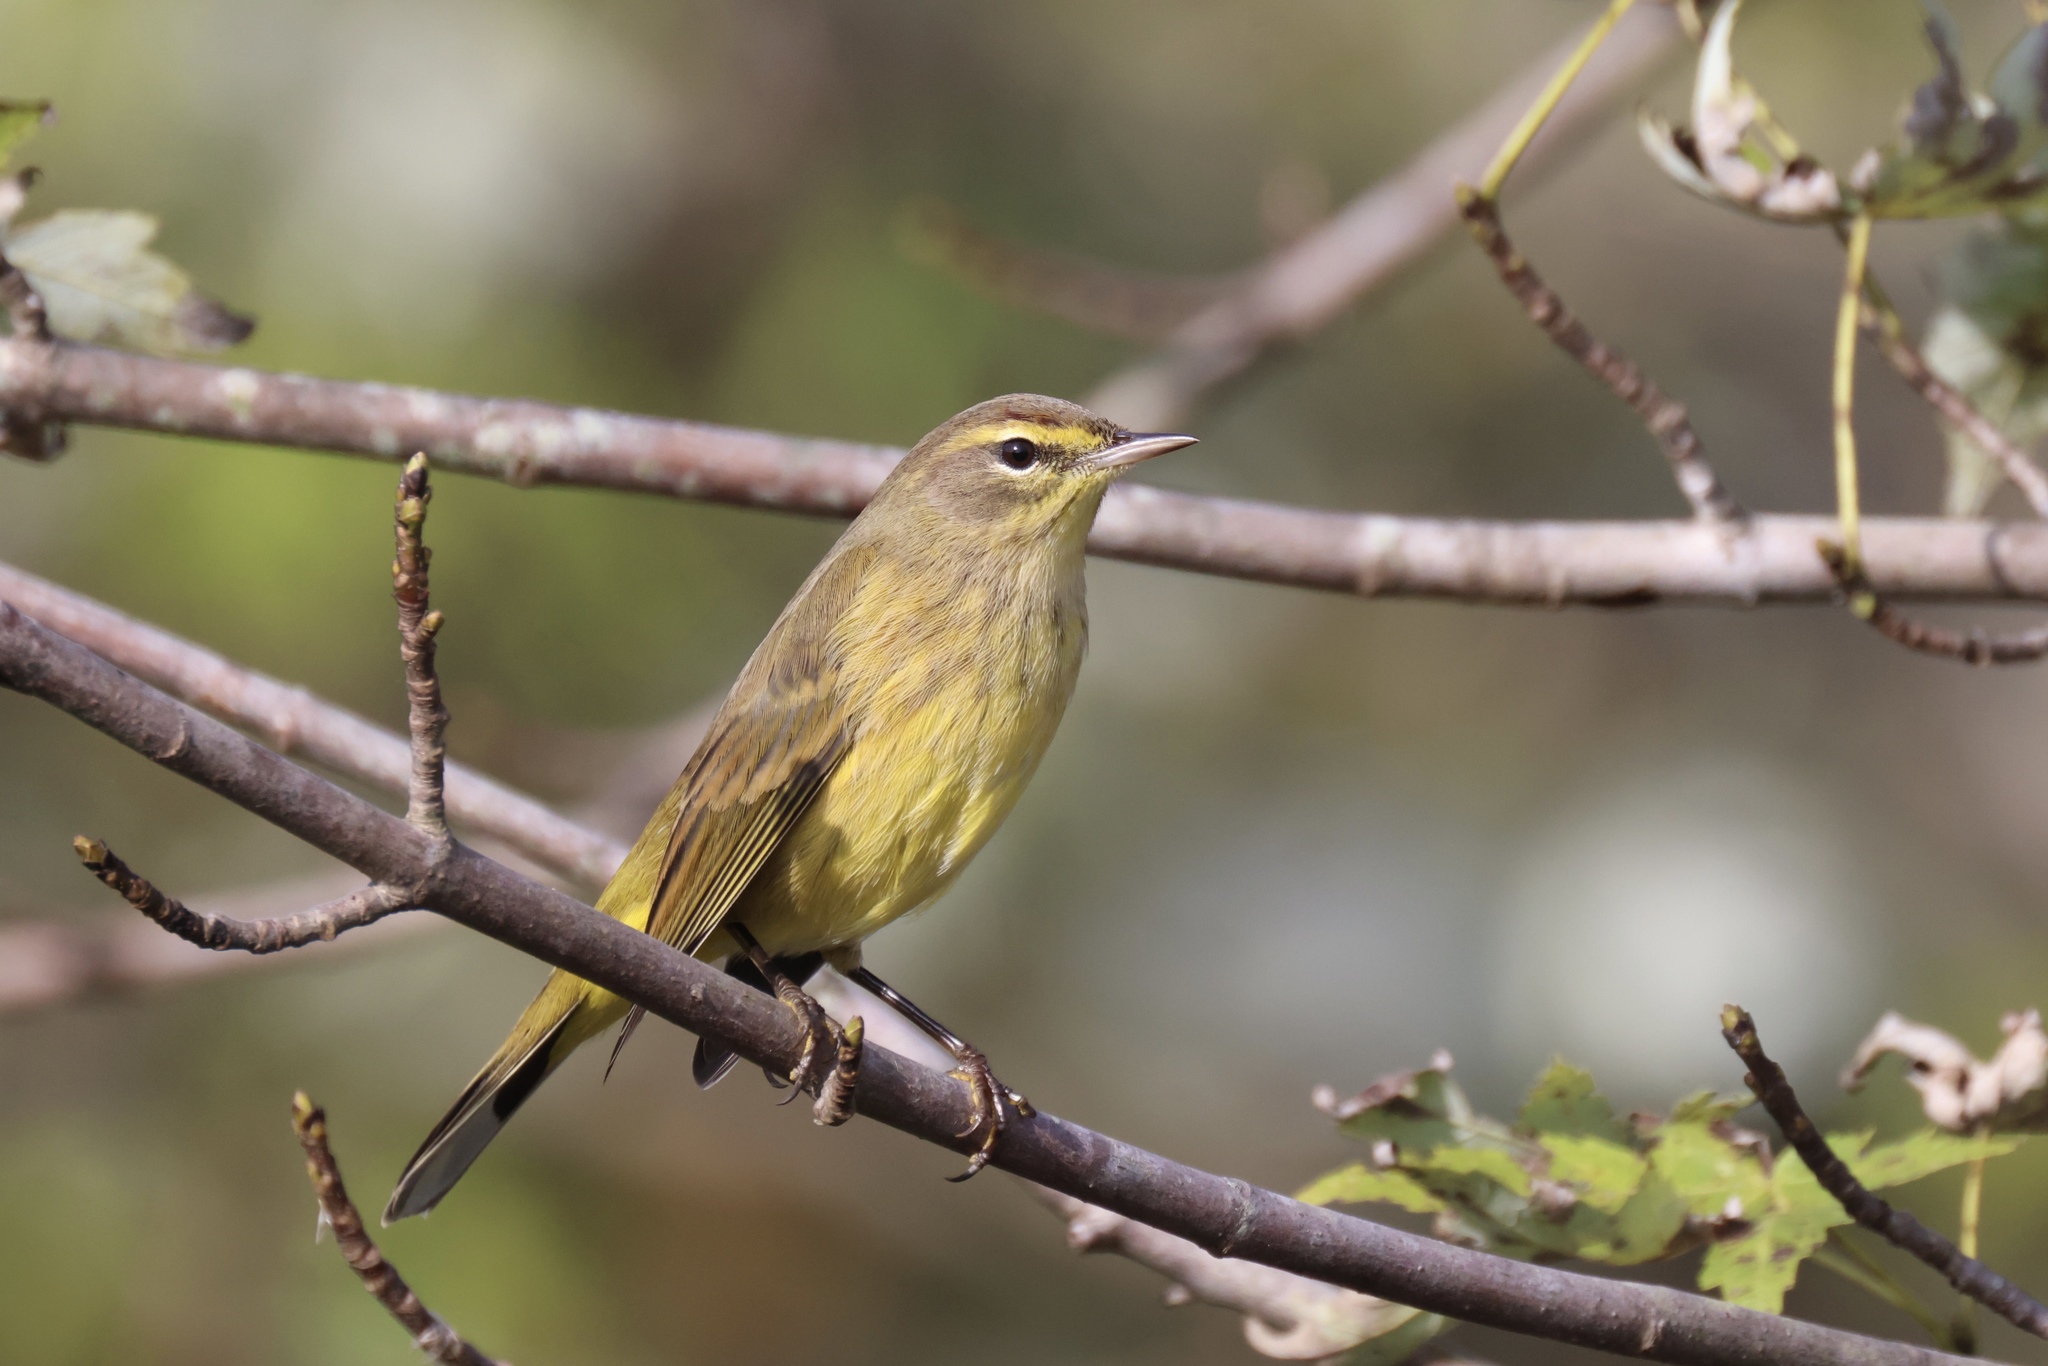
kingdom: Animalia
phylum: Chordata
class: Aves
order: Passeriformes
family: Parulidae
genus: Setophaga
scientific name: Setophaga palmarum
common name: Palm warbler
